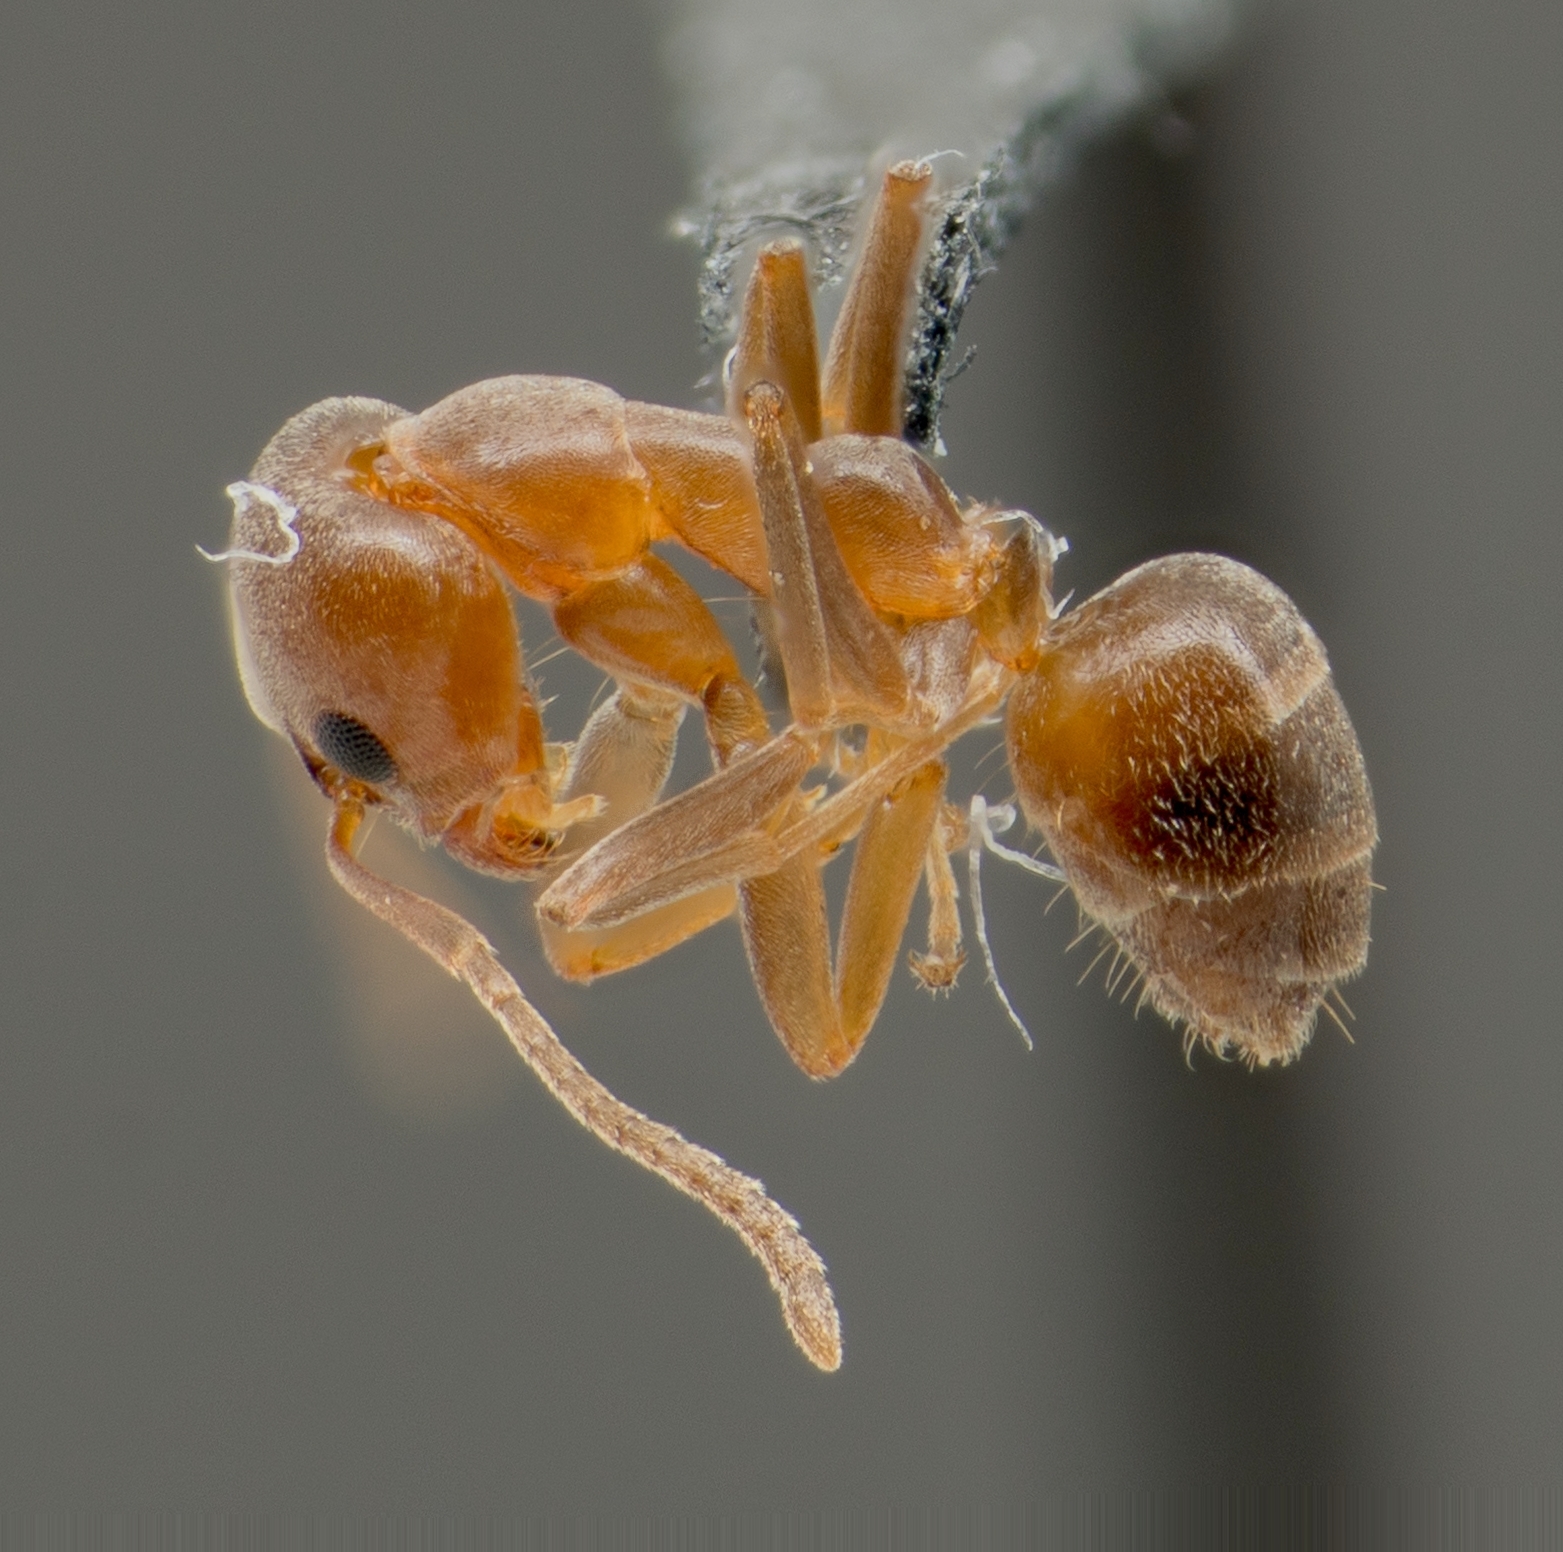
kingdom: Animalia
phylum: Arthropoda
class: Insecta
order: Hymenoptera
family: Formicidae
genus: Linepithema
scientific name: Linepithema humile
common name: Argentine ant
